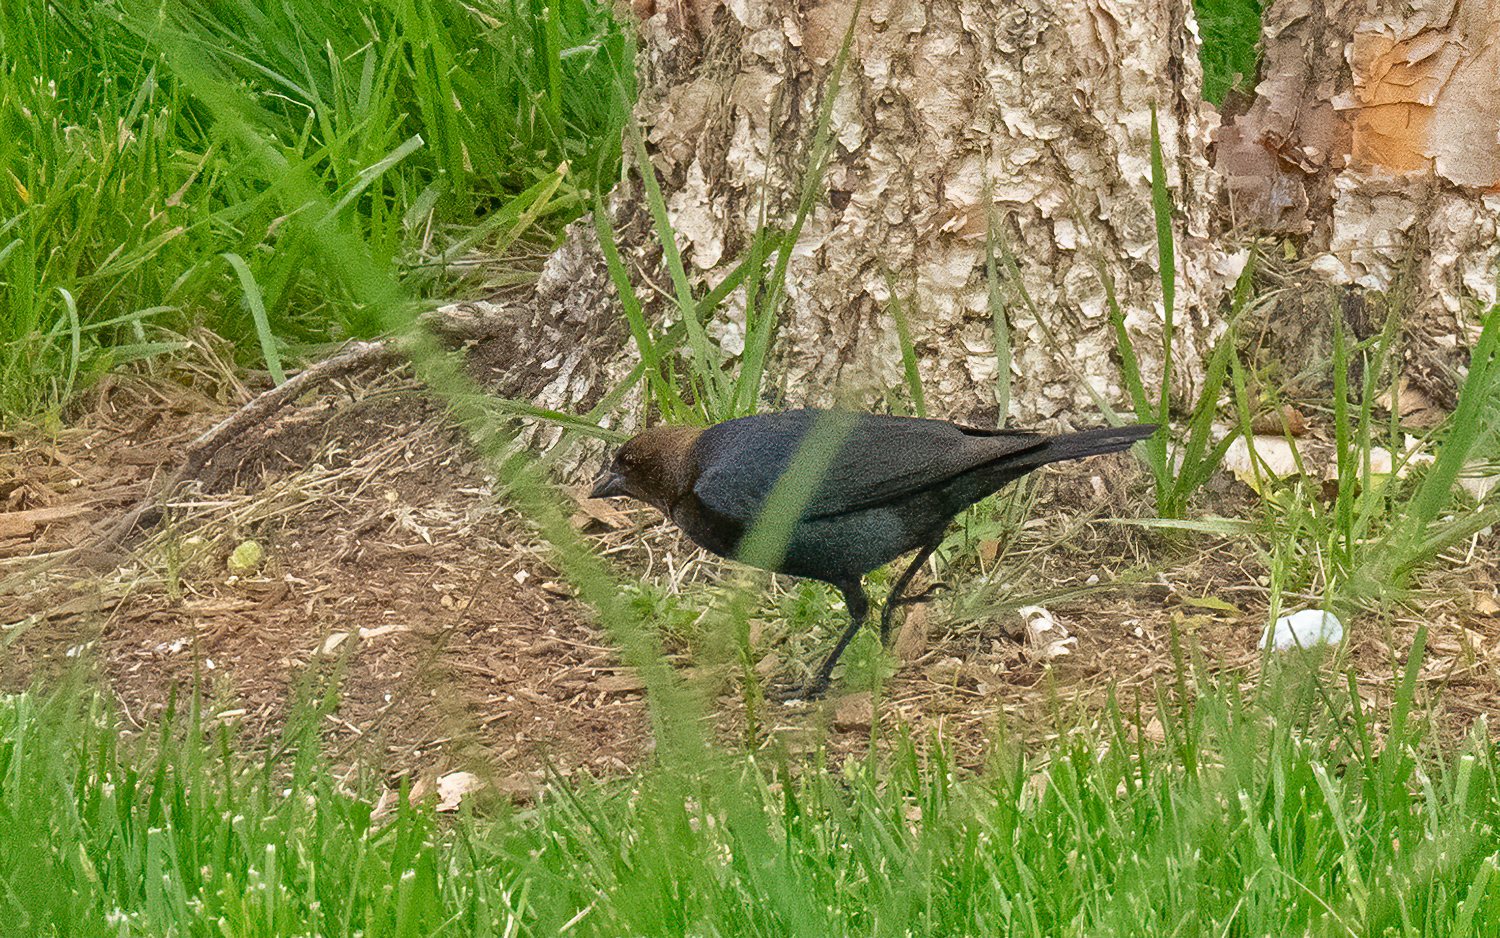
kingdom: Animalia
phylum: Chordata
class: Aves
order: Passeriformes
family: Icteridae
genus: Molothrus
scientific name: Molothrus ater
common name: Brown-headed cowbird
